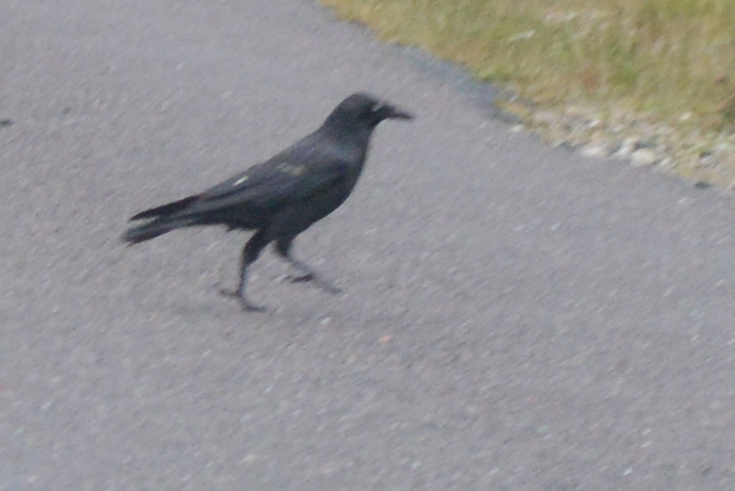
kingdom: Animalia
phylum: Chordata
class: Aves
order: Passeriformes
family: Corvidae
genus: Corvus
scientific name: Corvus tasmanicus
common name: Forest raven
